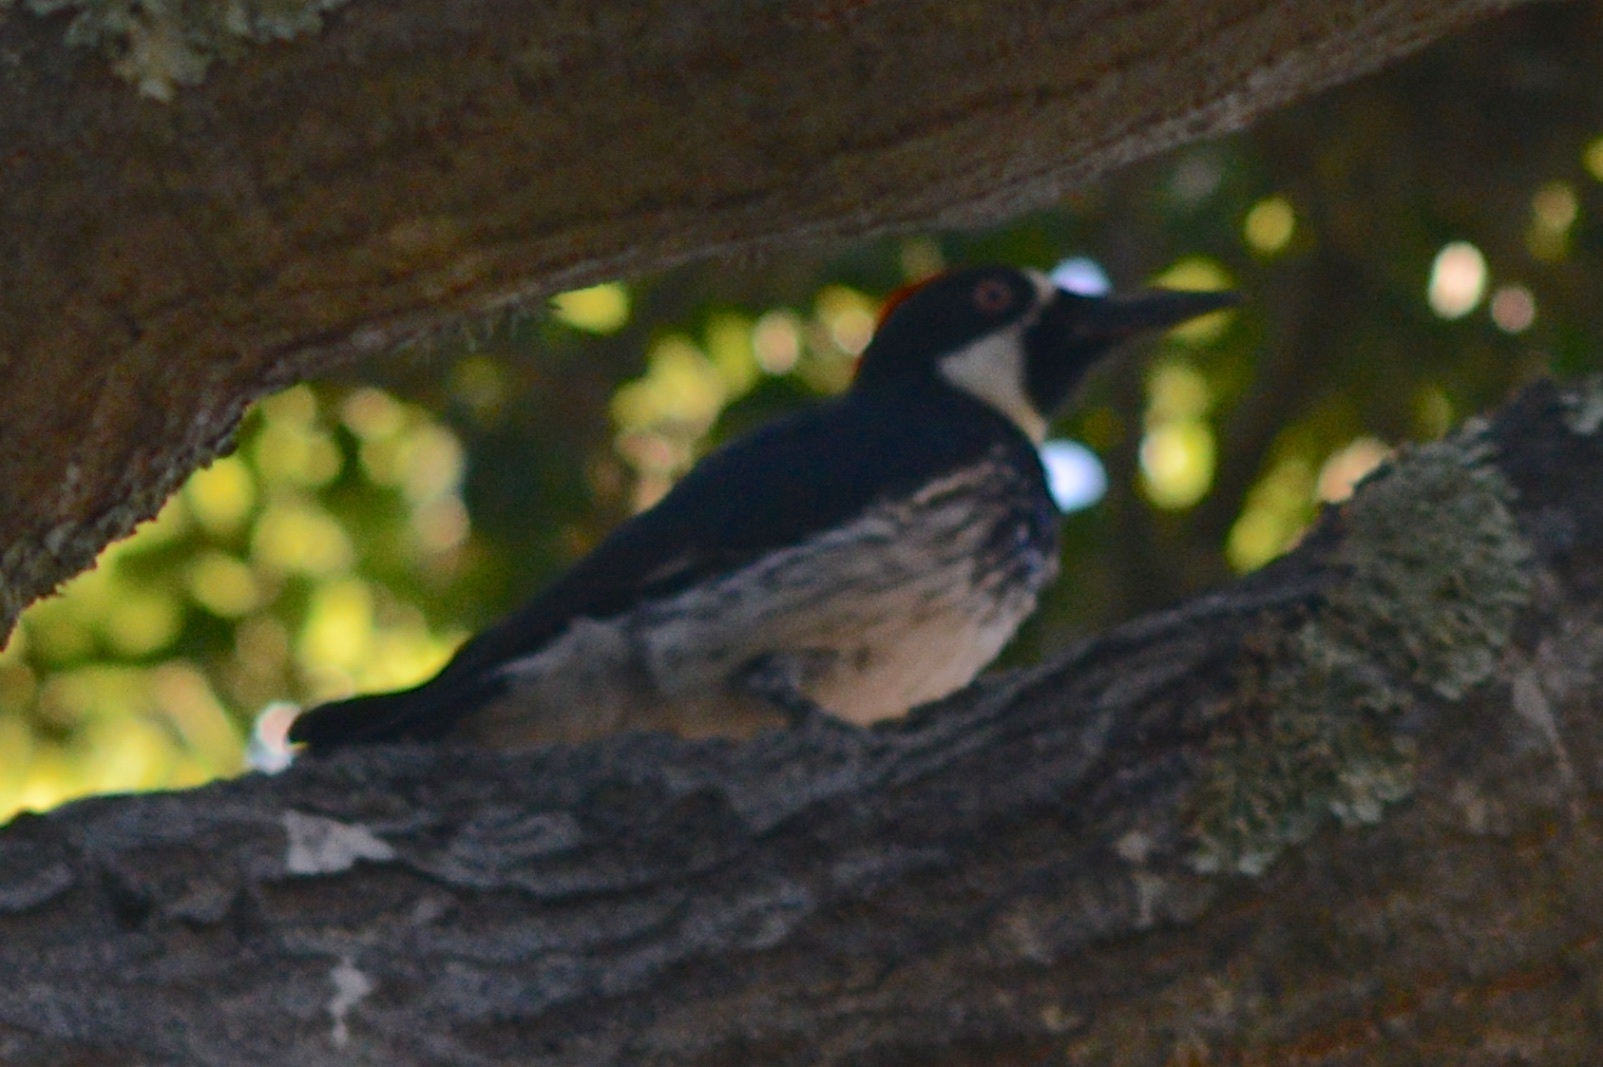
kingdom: Animalia
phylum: Chordata
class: Aves
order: Piciformes
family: Picidae
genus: Melanerpes
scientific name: Melanerpes formicivorus
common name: Acorn woodpecker
